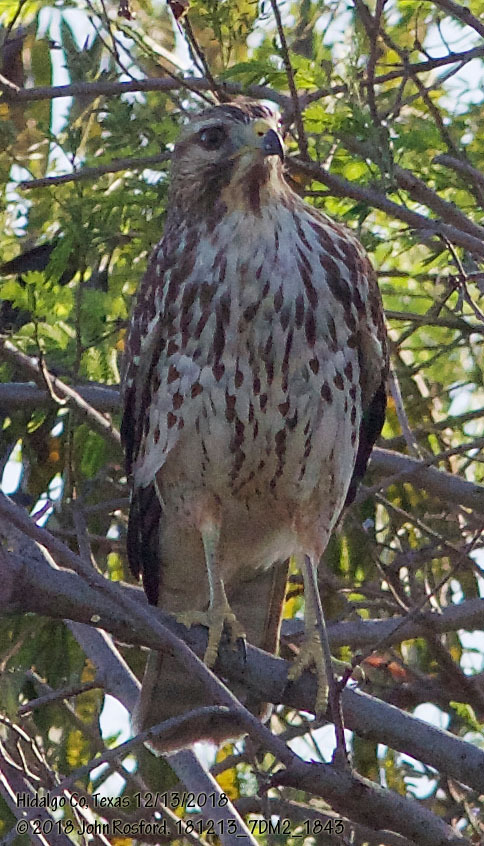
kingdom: Animalia
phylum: Chordata
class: Aves
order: Accipitriformes
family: Accipitridae
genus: Buteo
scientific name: Buteo lineatus
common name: Red-shouldered hawk
